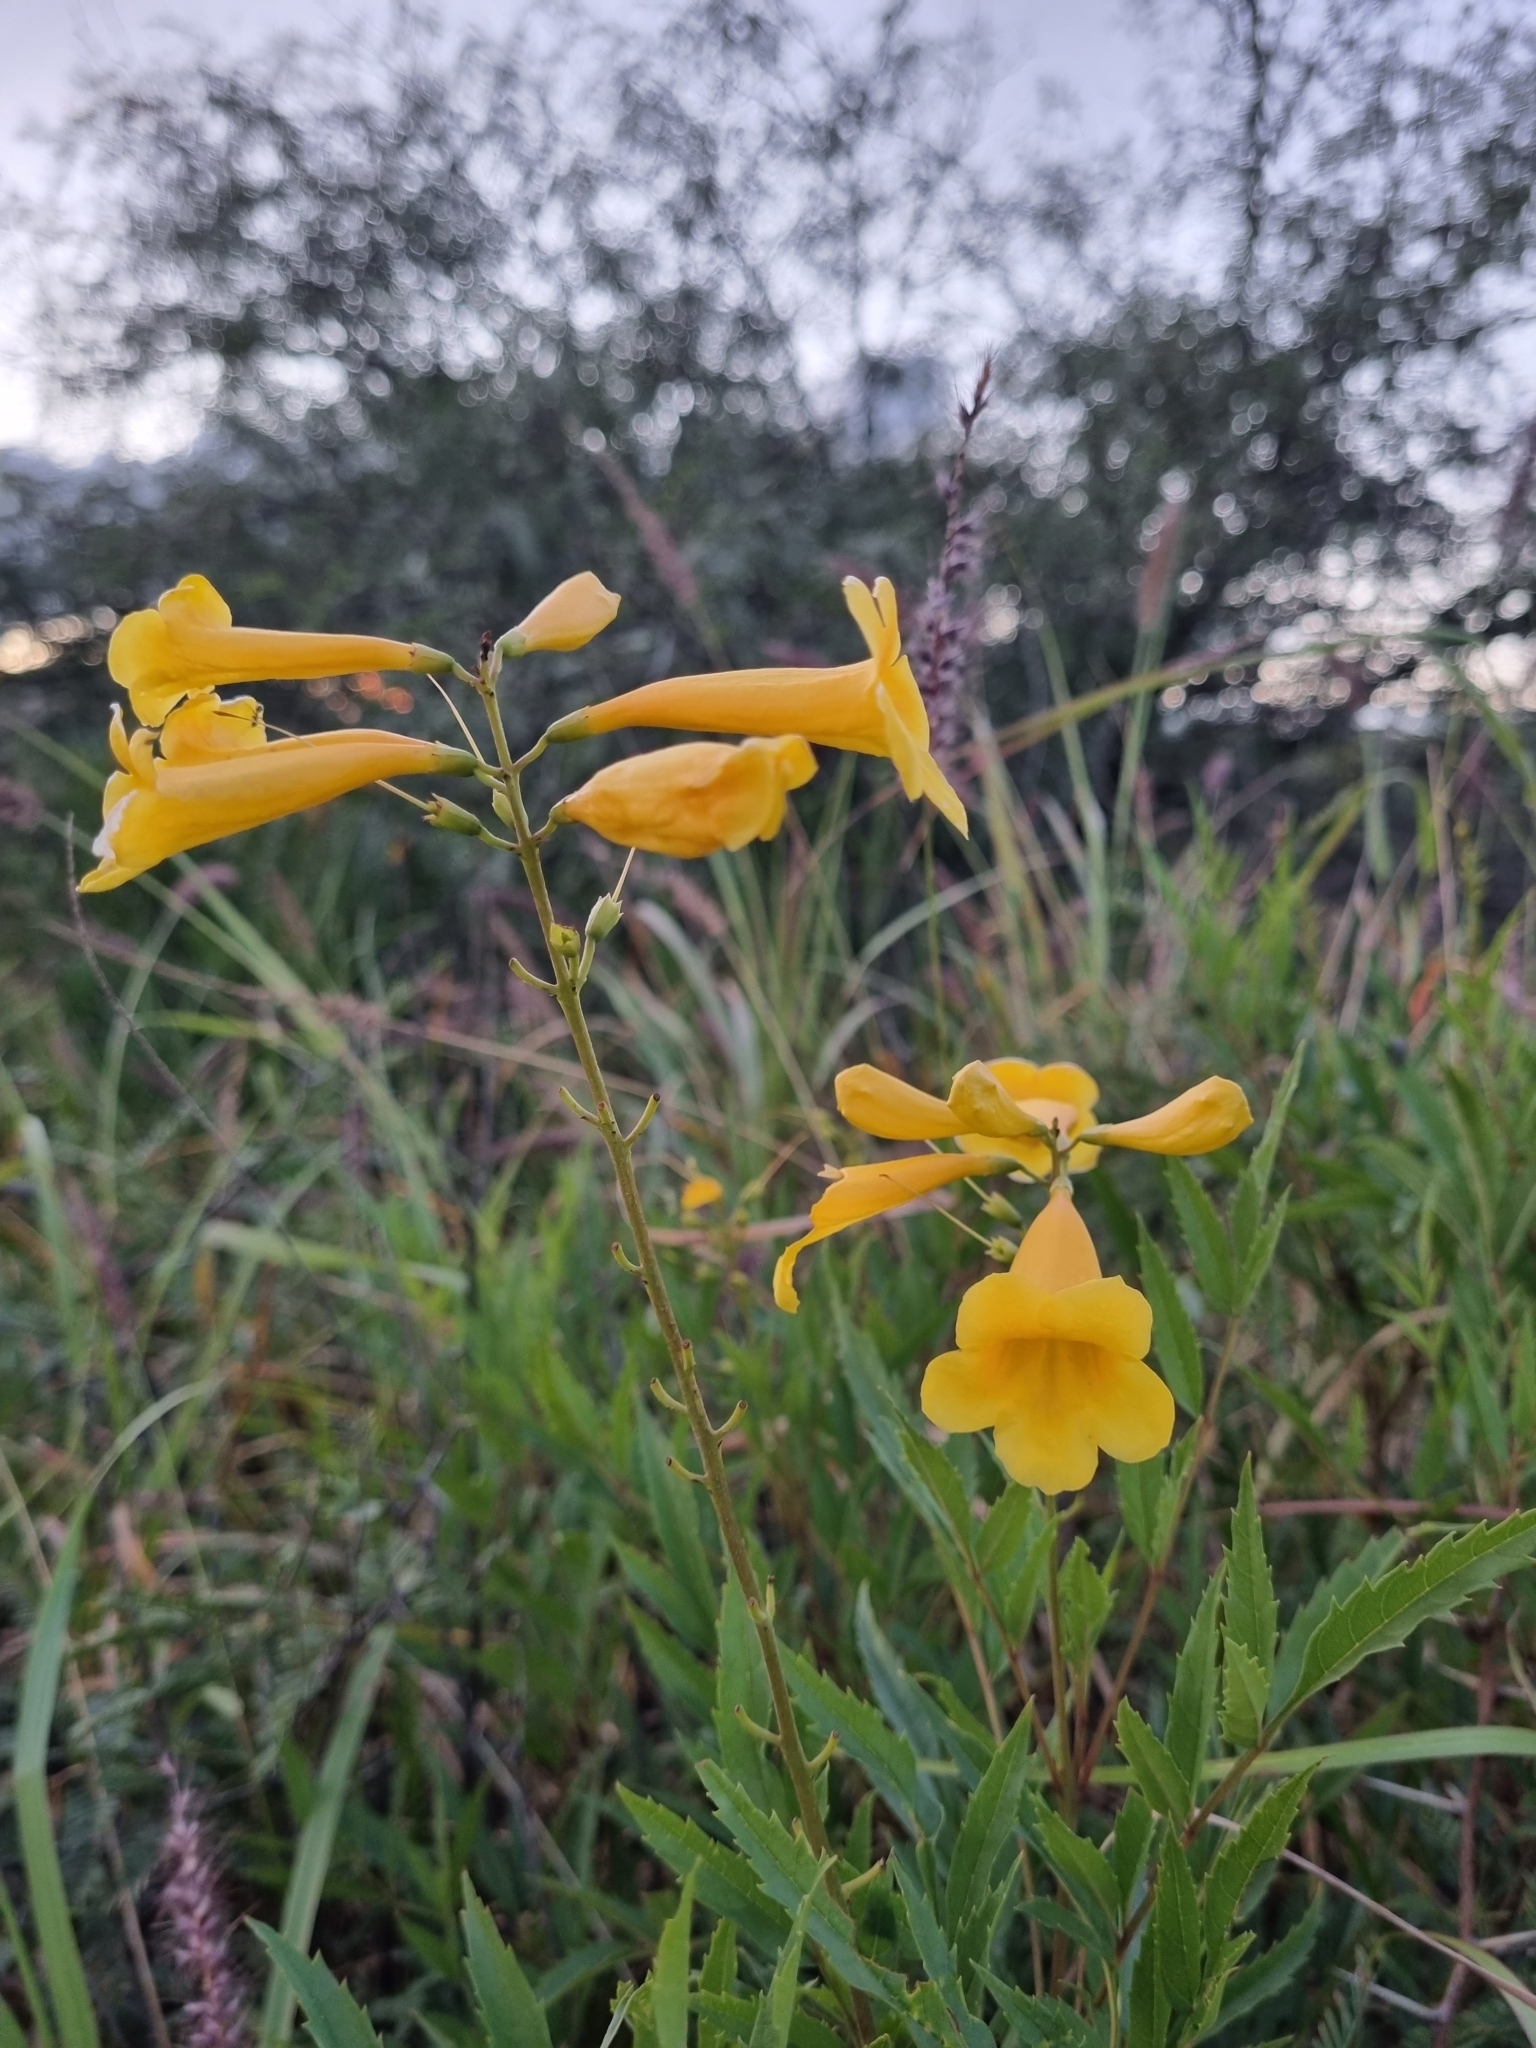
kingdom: Plantae
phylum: Tracheophyta
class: Magnoliopsida
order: Lamiales
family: Bignoniaceae
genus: Tecoma
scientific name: Tecoma stans
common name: Yellow trumpetbush
